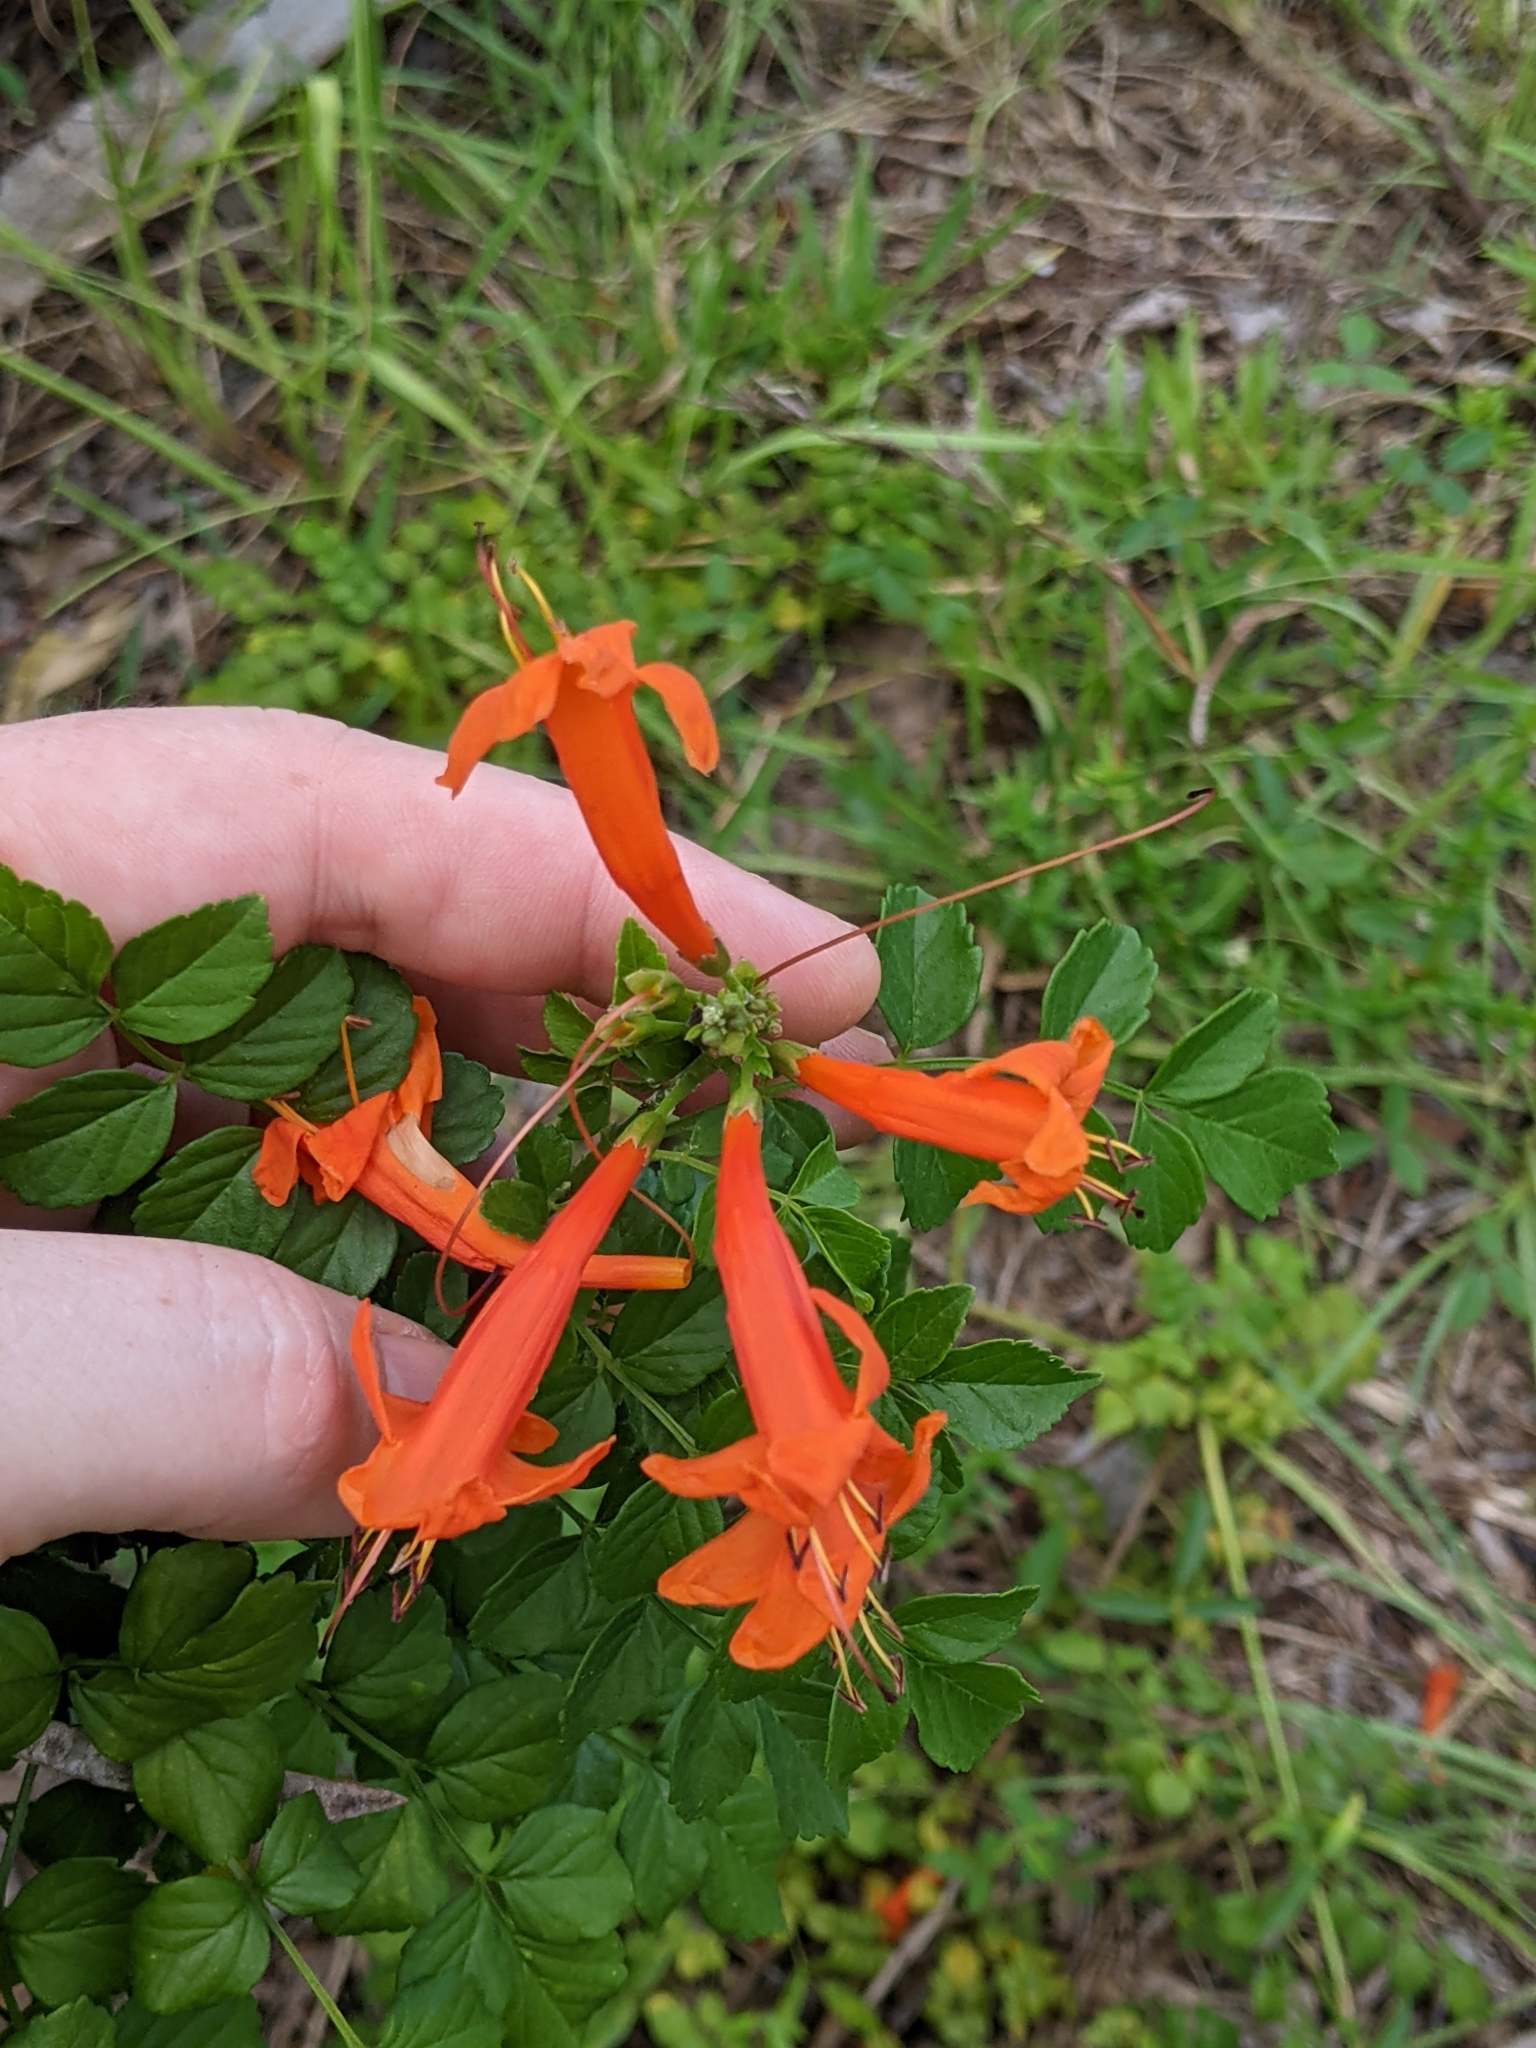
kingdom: Plantae
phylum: Tracheophyta
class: Magnoliopsida
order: Lamiales
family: Bignoniaceae
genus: Tecomaria
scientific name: Tecomaria capensis
